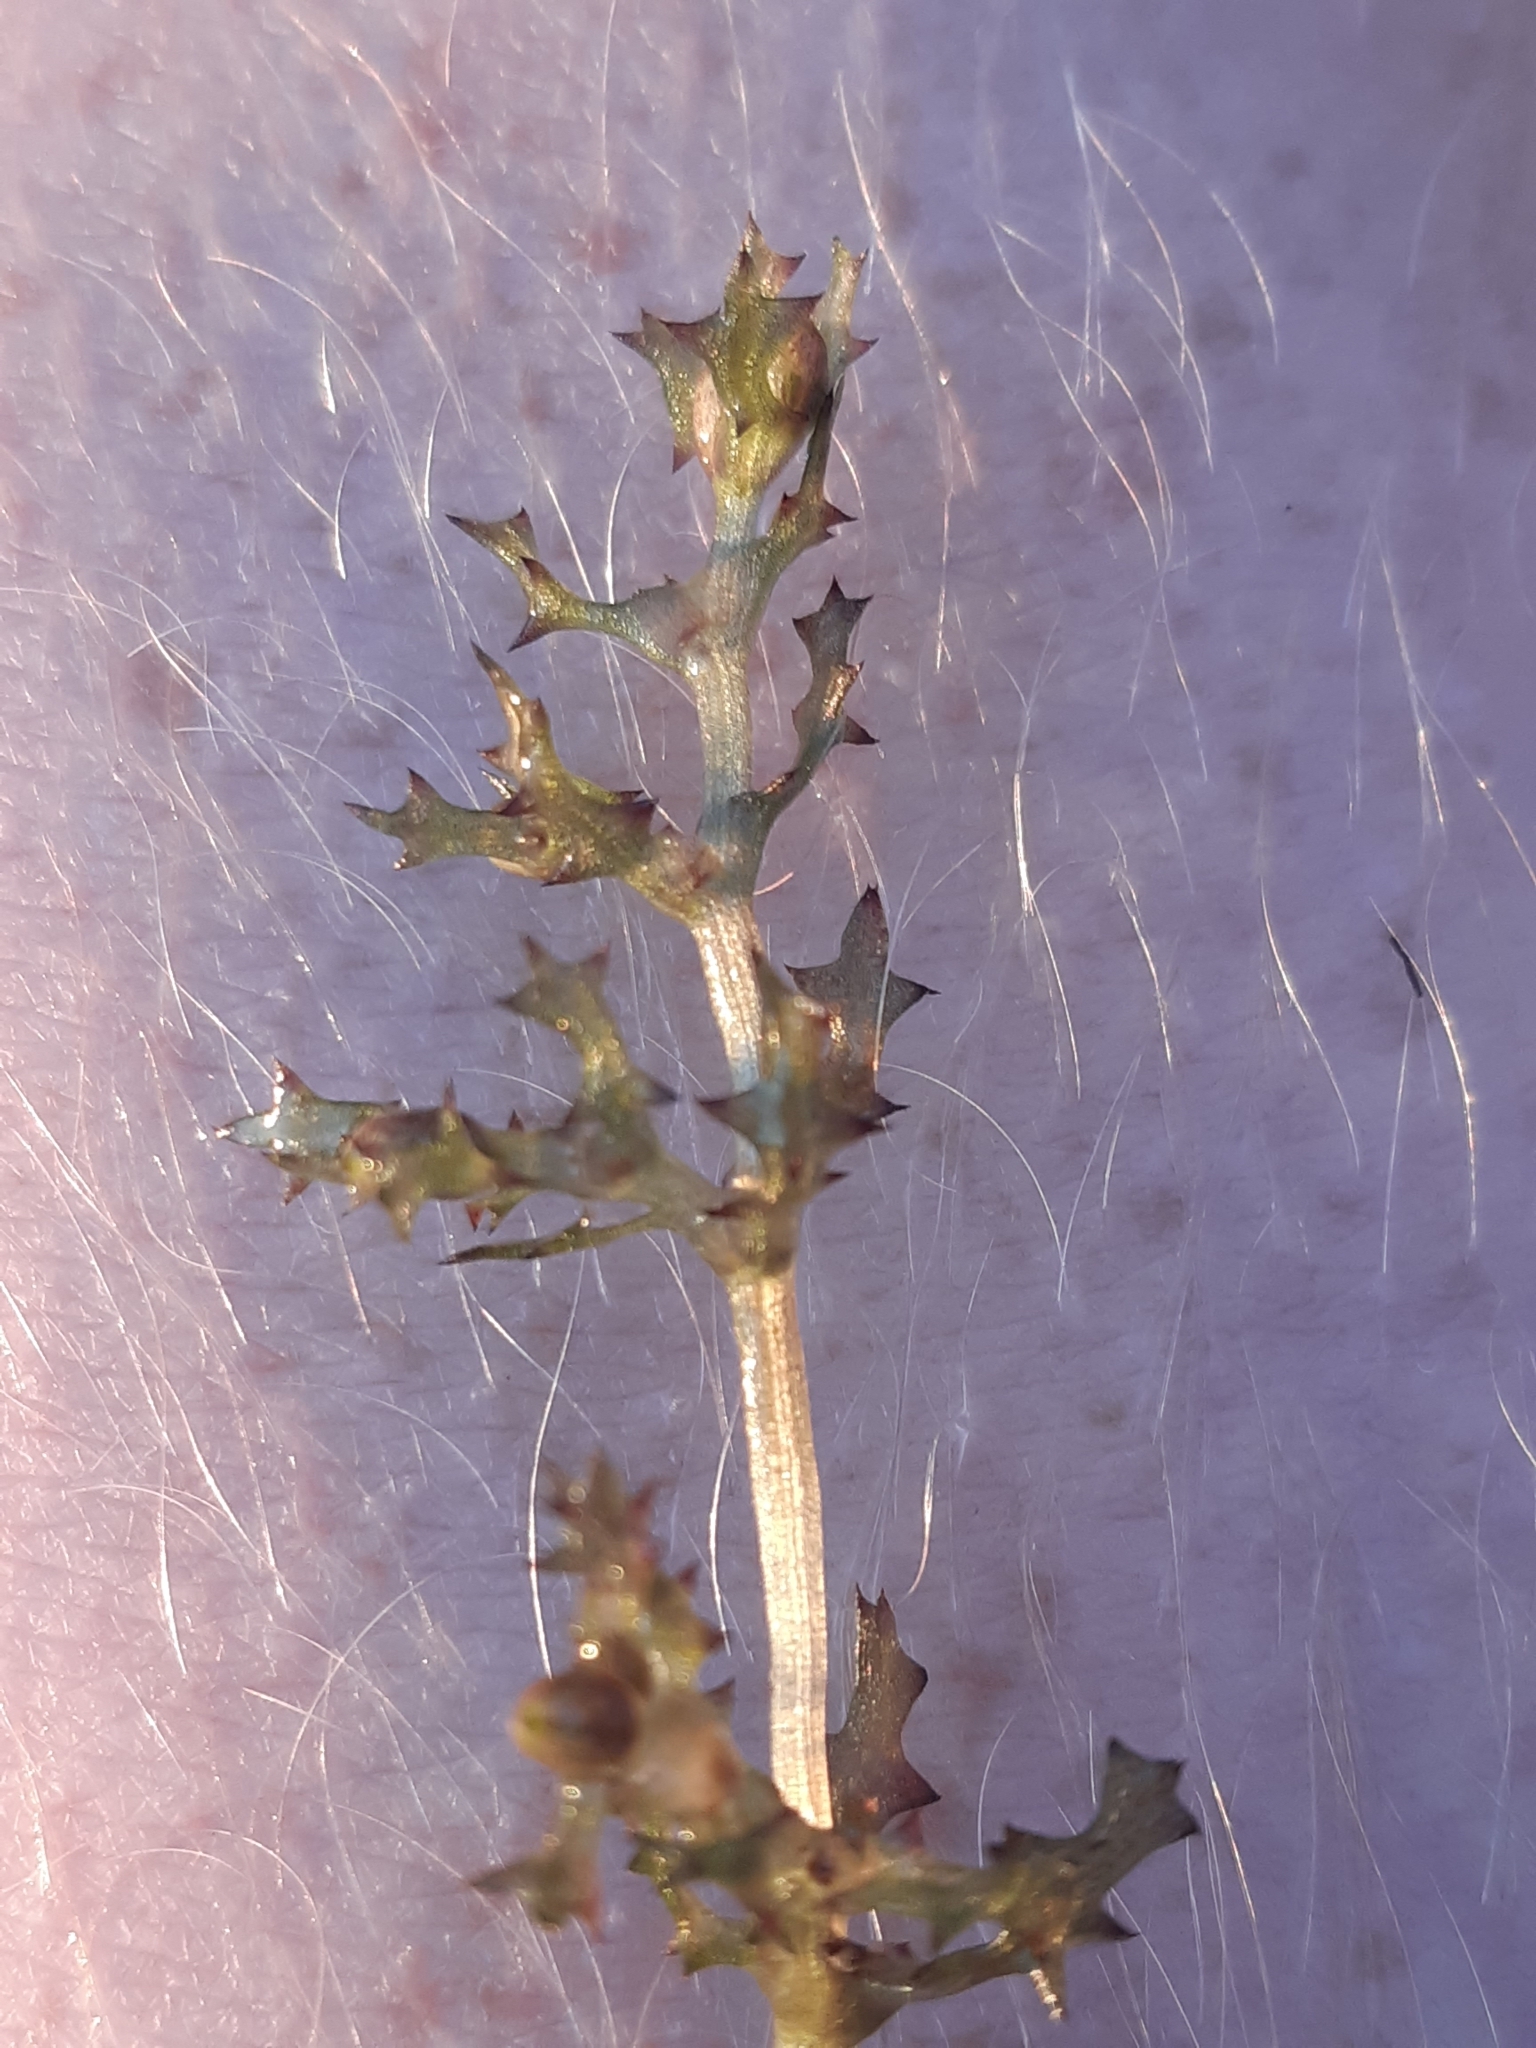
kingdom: Plantae
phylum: Tracheophyta
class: Liliopsida
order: Alismatales
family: Hydrocharitaceae
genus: Najas
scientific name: Najas marina
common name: Holly-leaved naiad
